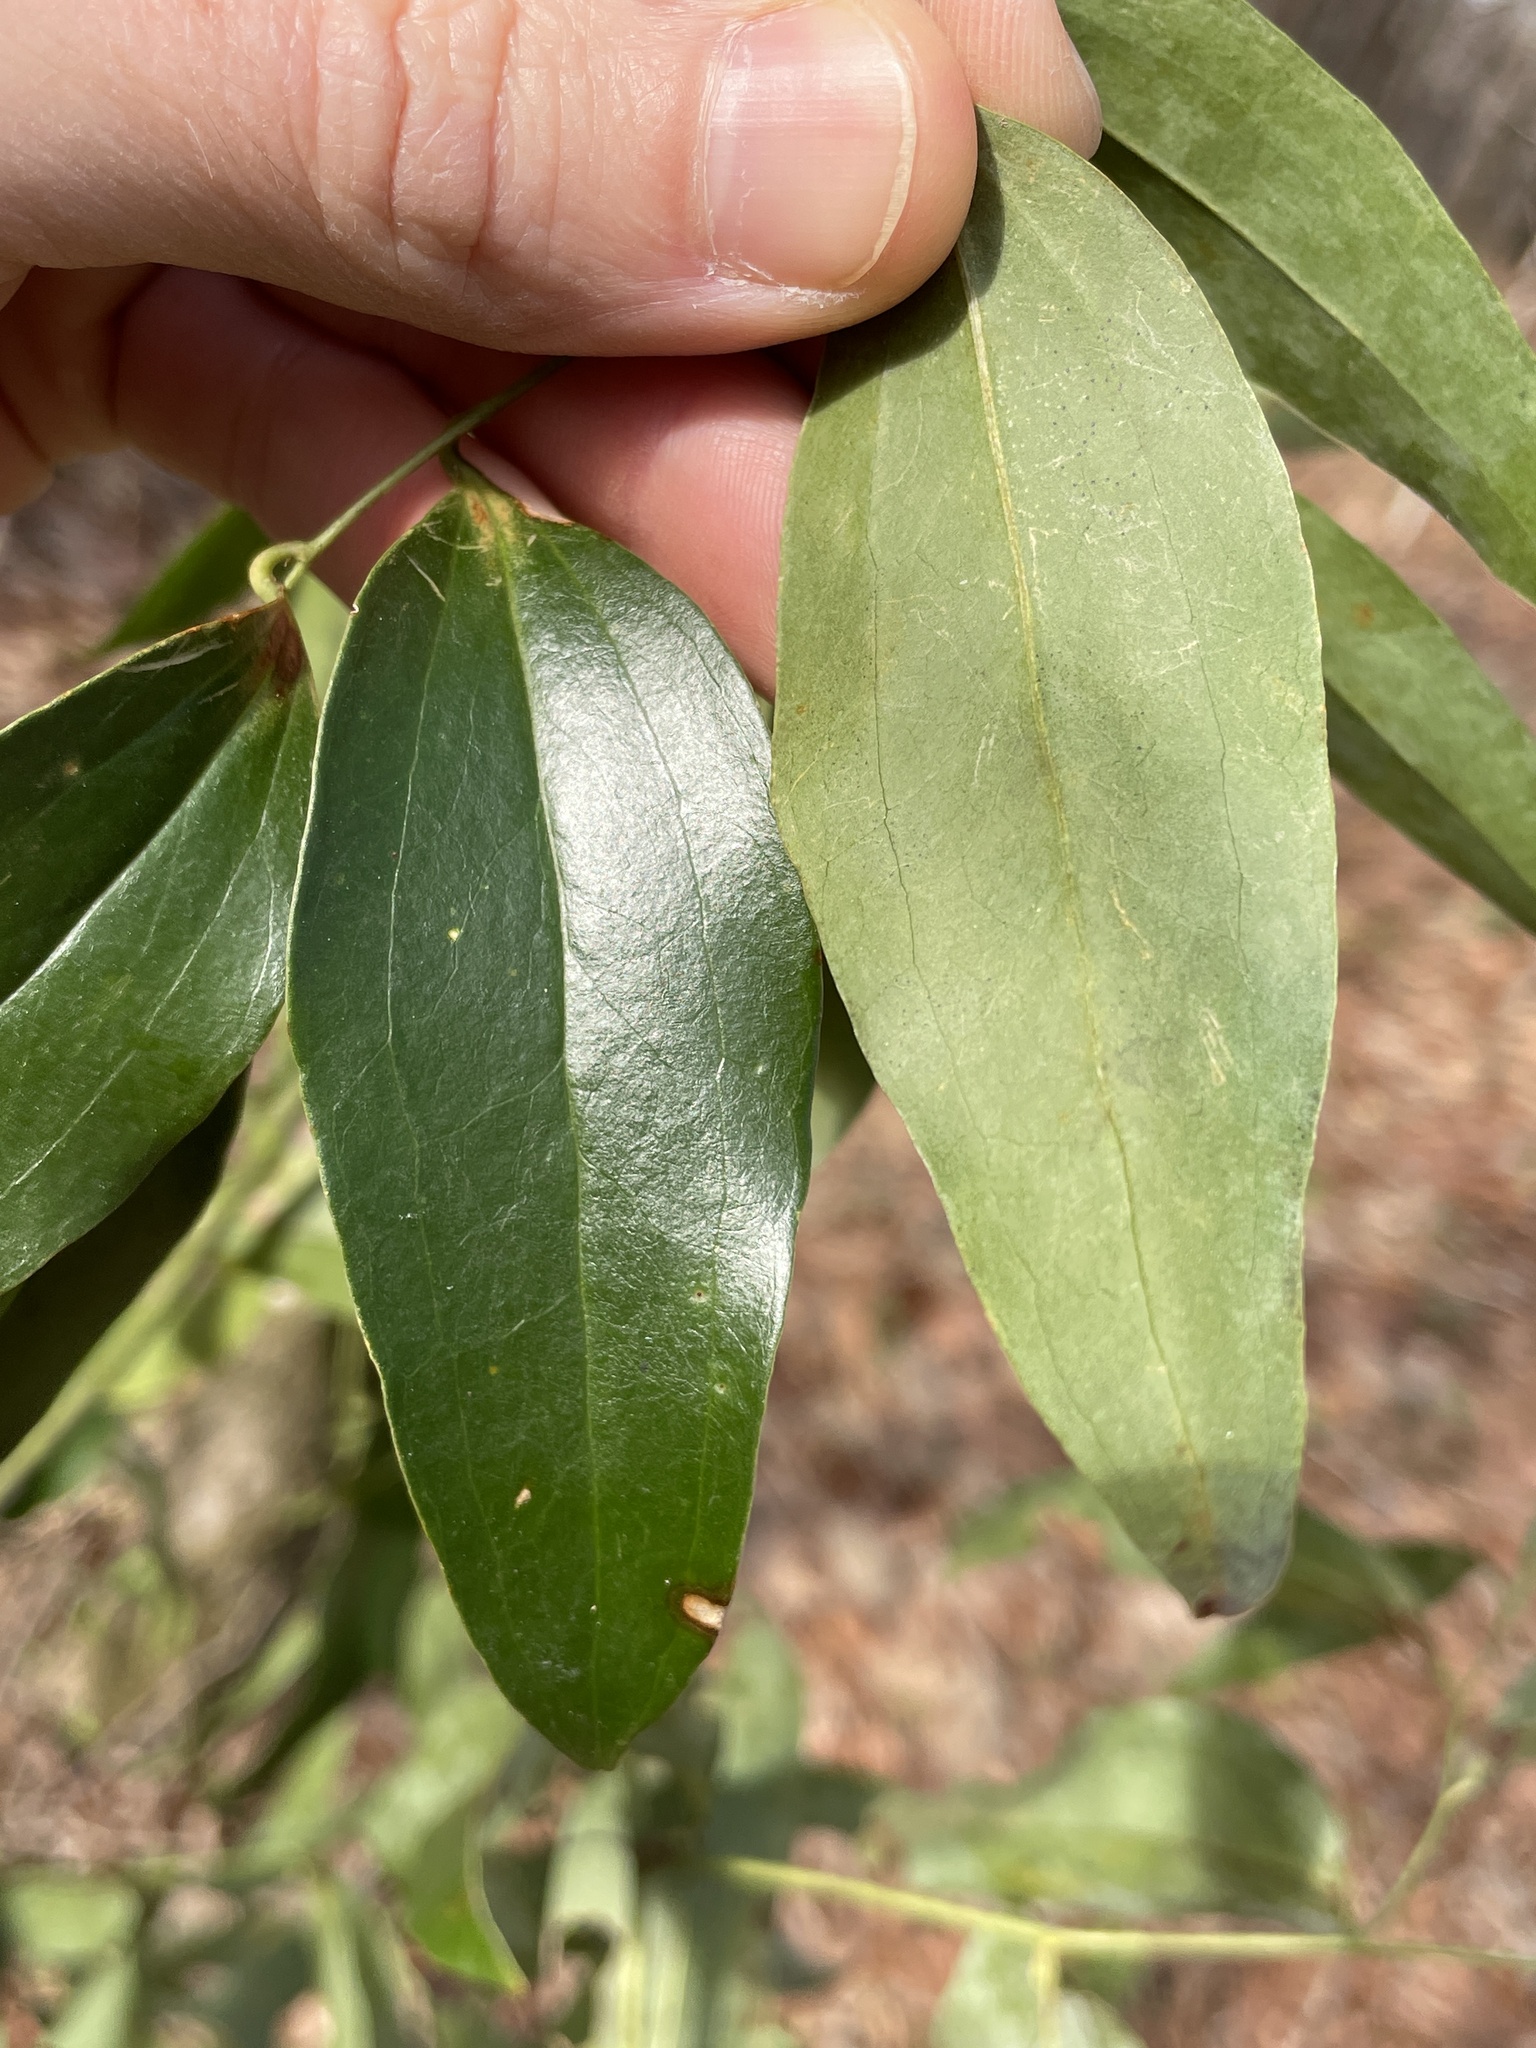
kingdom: Plantae
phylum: Tracheophyta
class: Liliopsida
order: Liliales
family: Smilacaceae
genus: Smilax
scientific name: Smilax maritima
